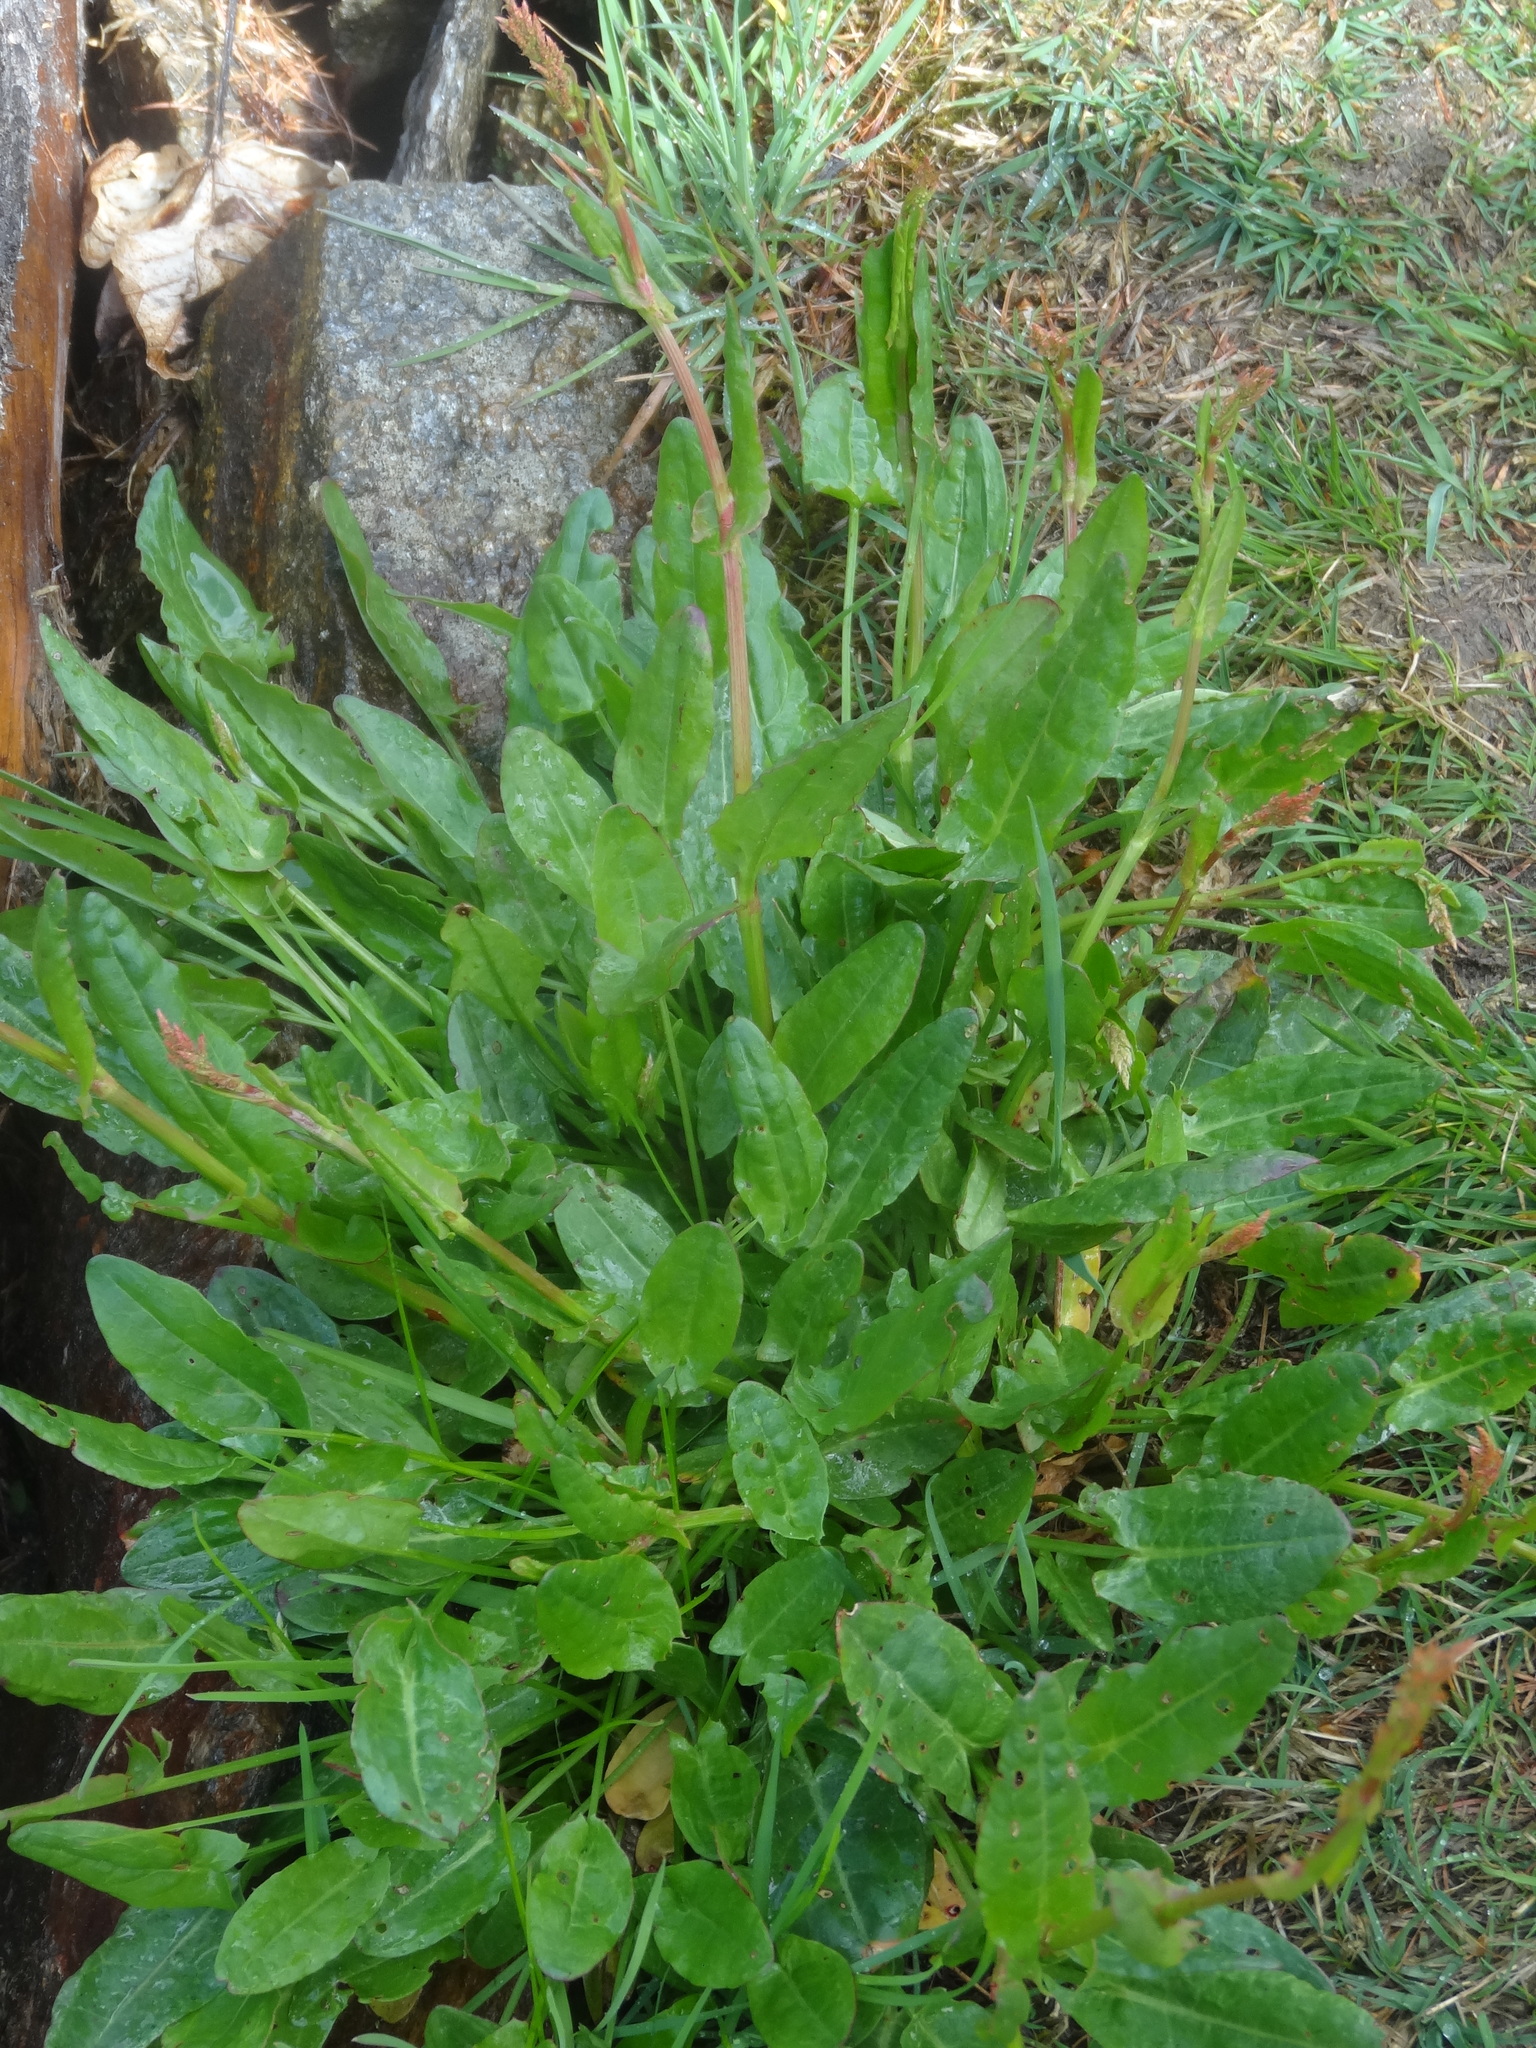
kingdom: Plantae
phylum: Tracheophyta
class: Magnoliopsida
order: Caryophyllales
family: Polygonaceae
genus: Rumex
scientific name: Rumex acetosa
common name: Garden sorrel
